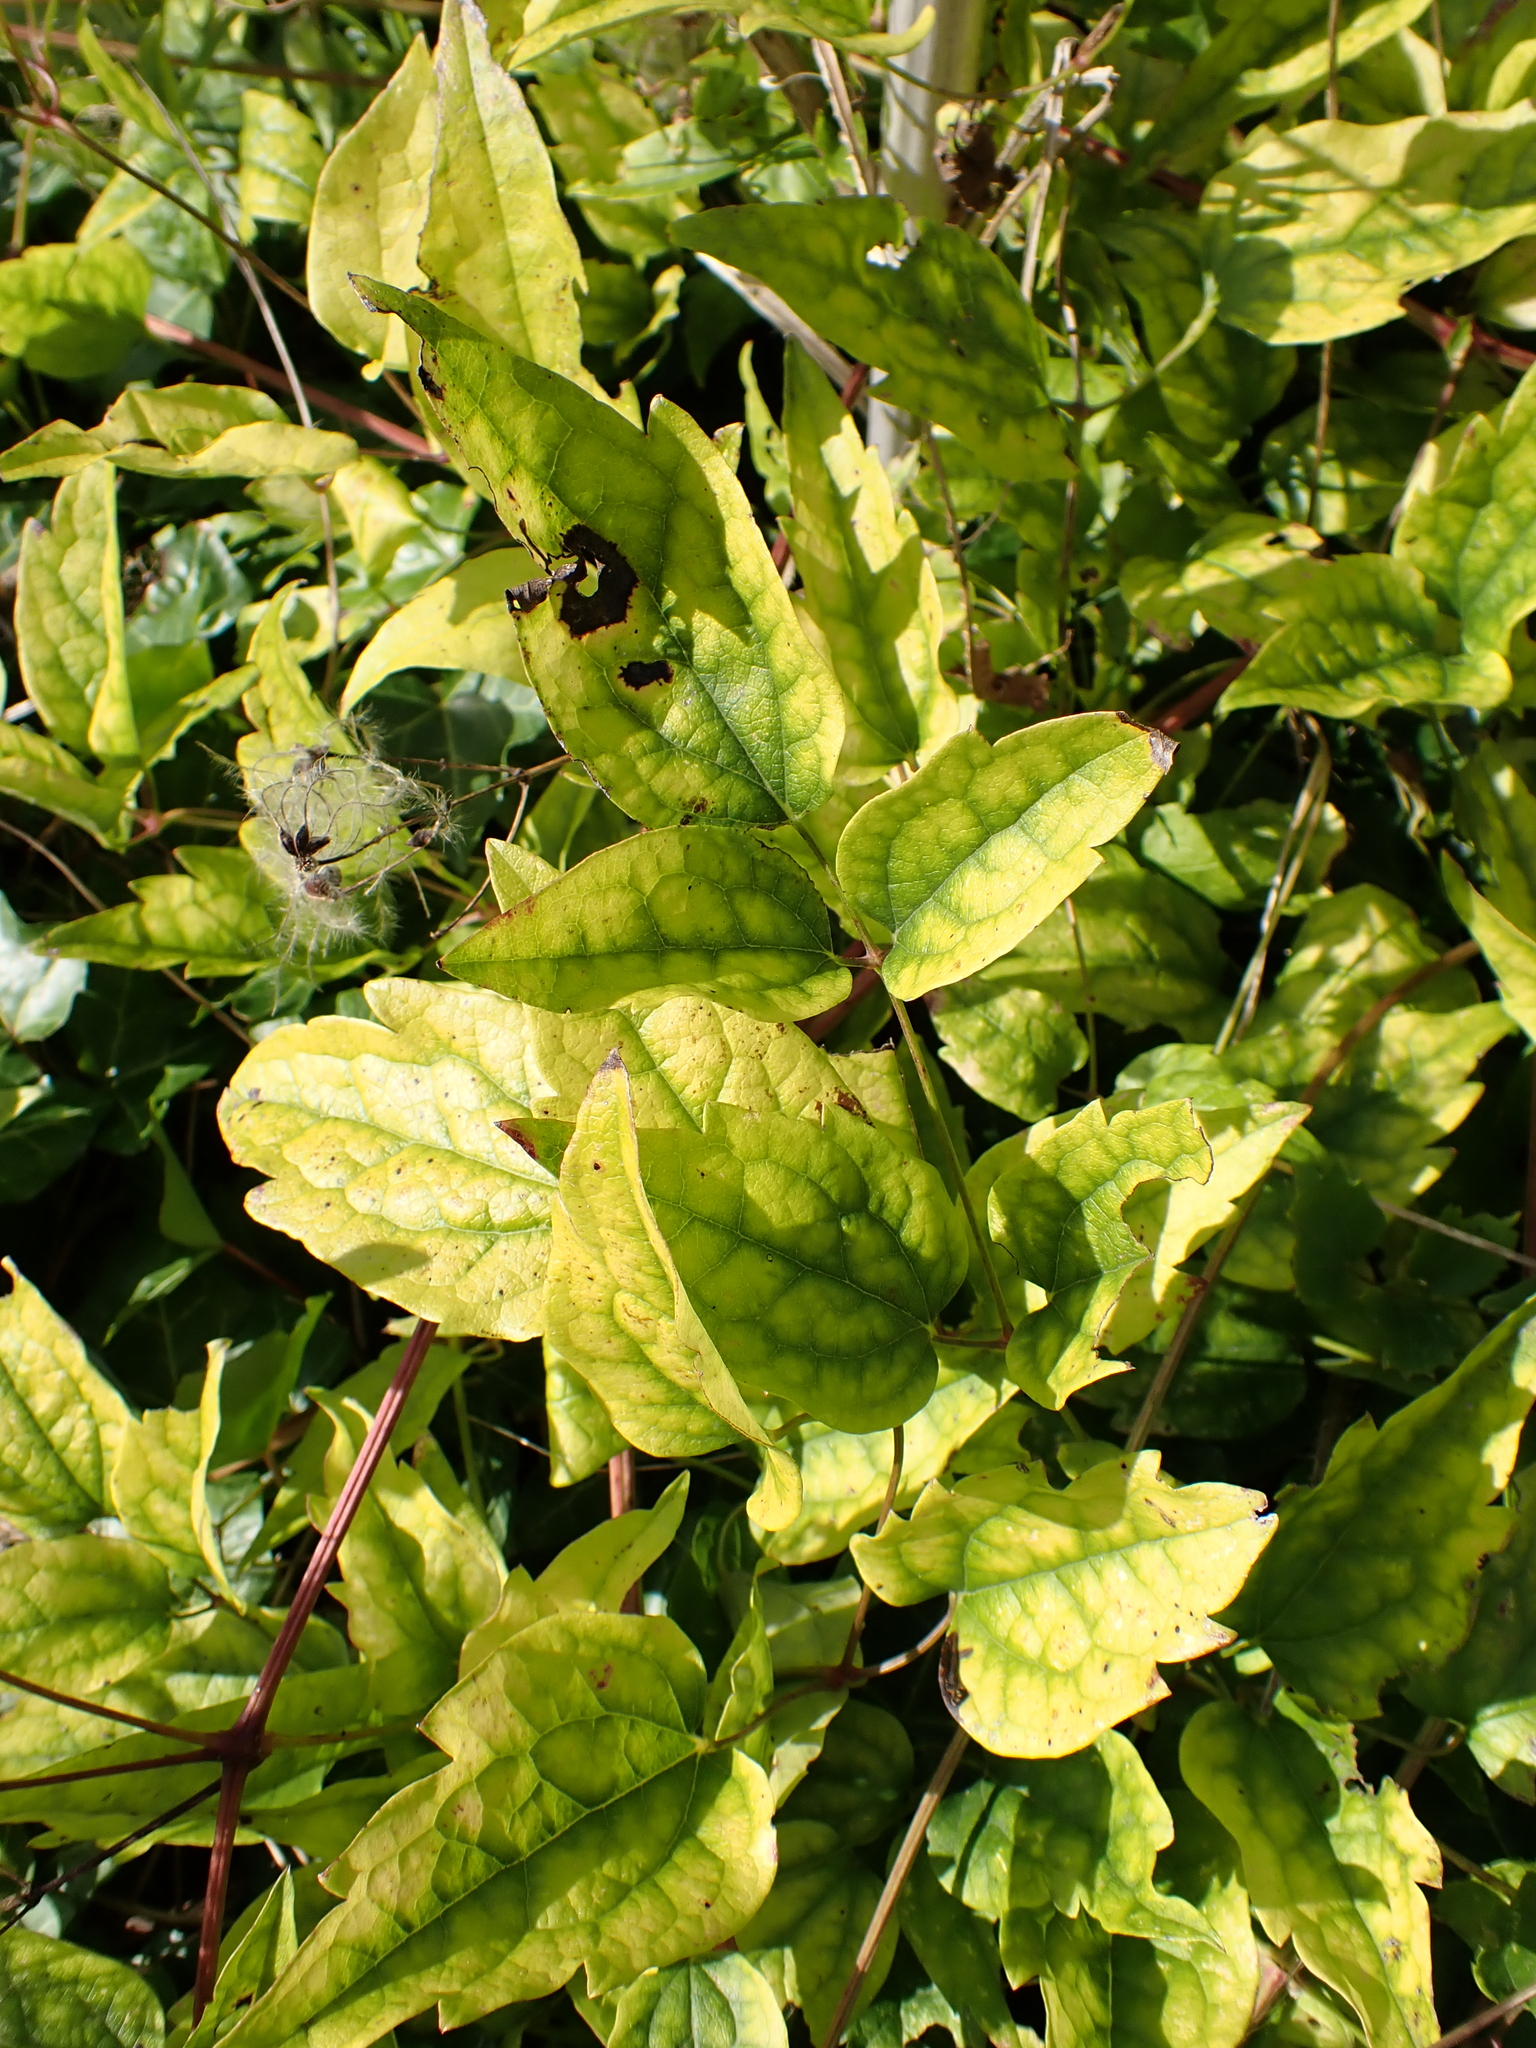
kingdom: Plantae
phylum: Tracheophyta
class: Magnoliopsida
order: Ranunculales
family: Ranunculaceae
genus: Clematis
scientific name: Clematis vitalba
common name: Evergreen clematis
